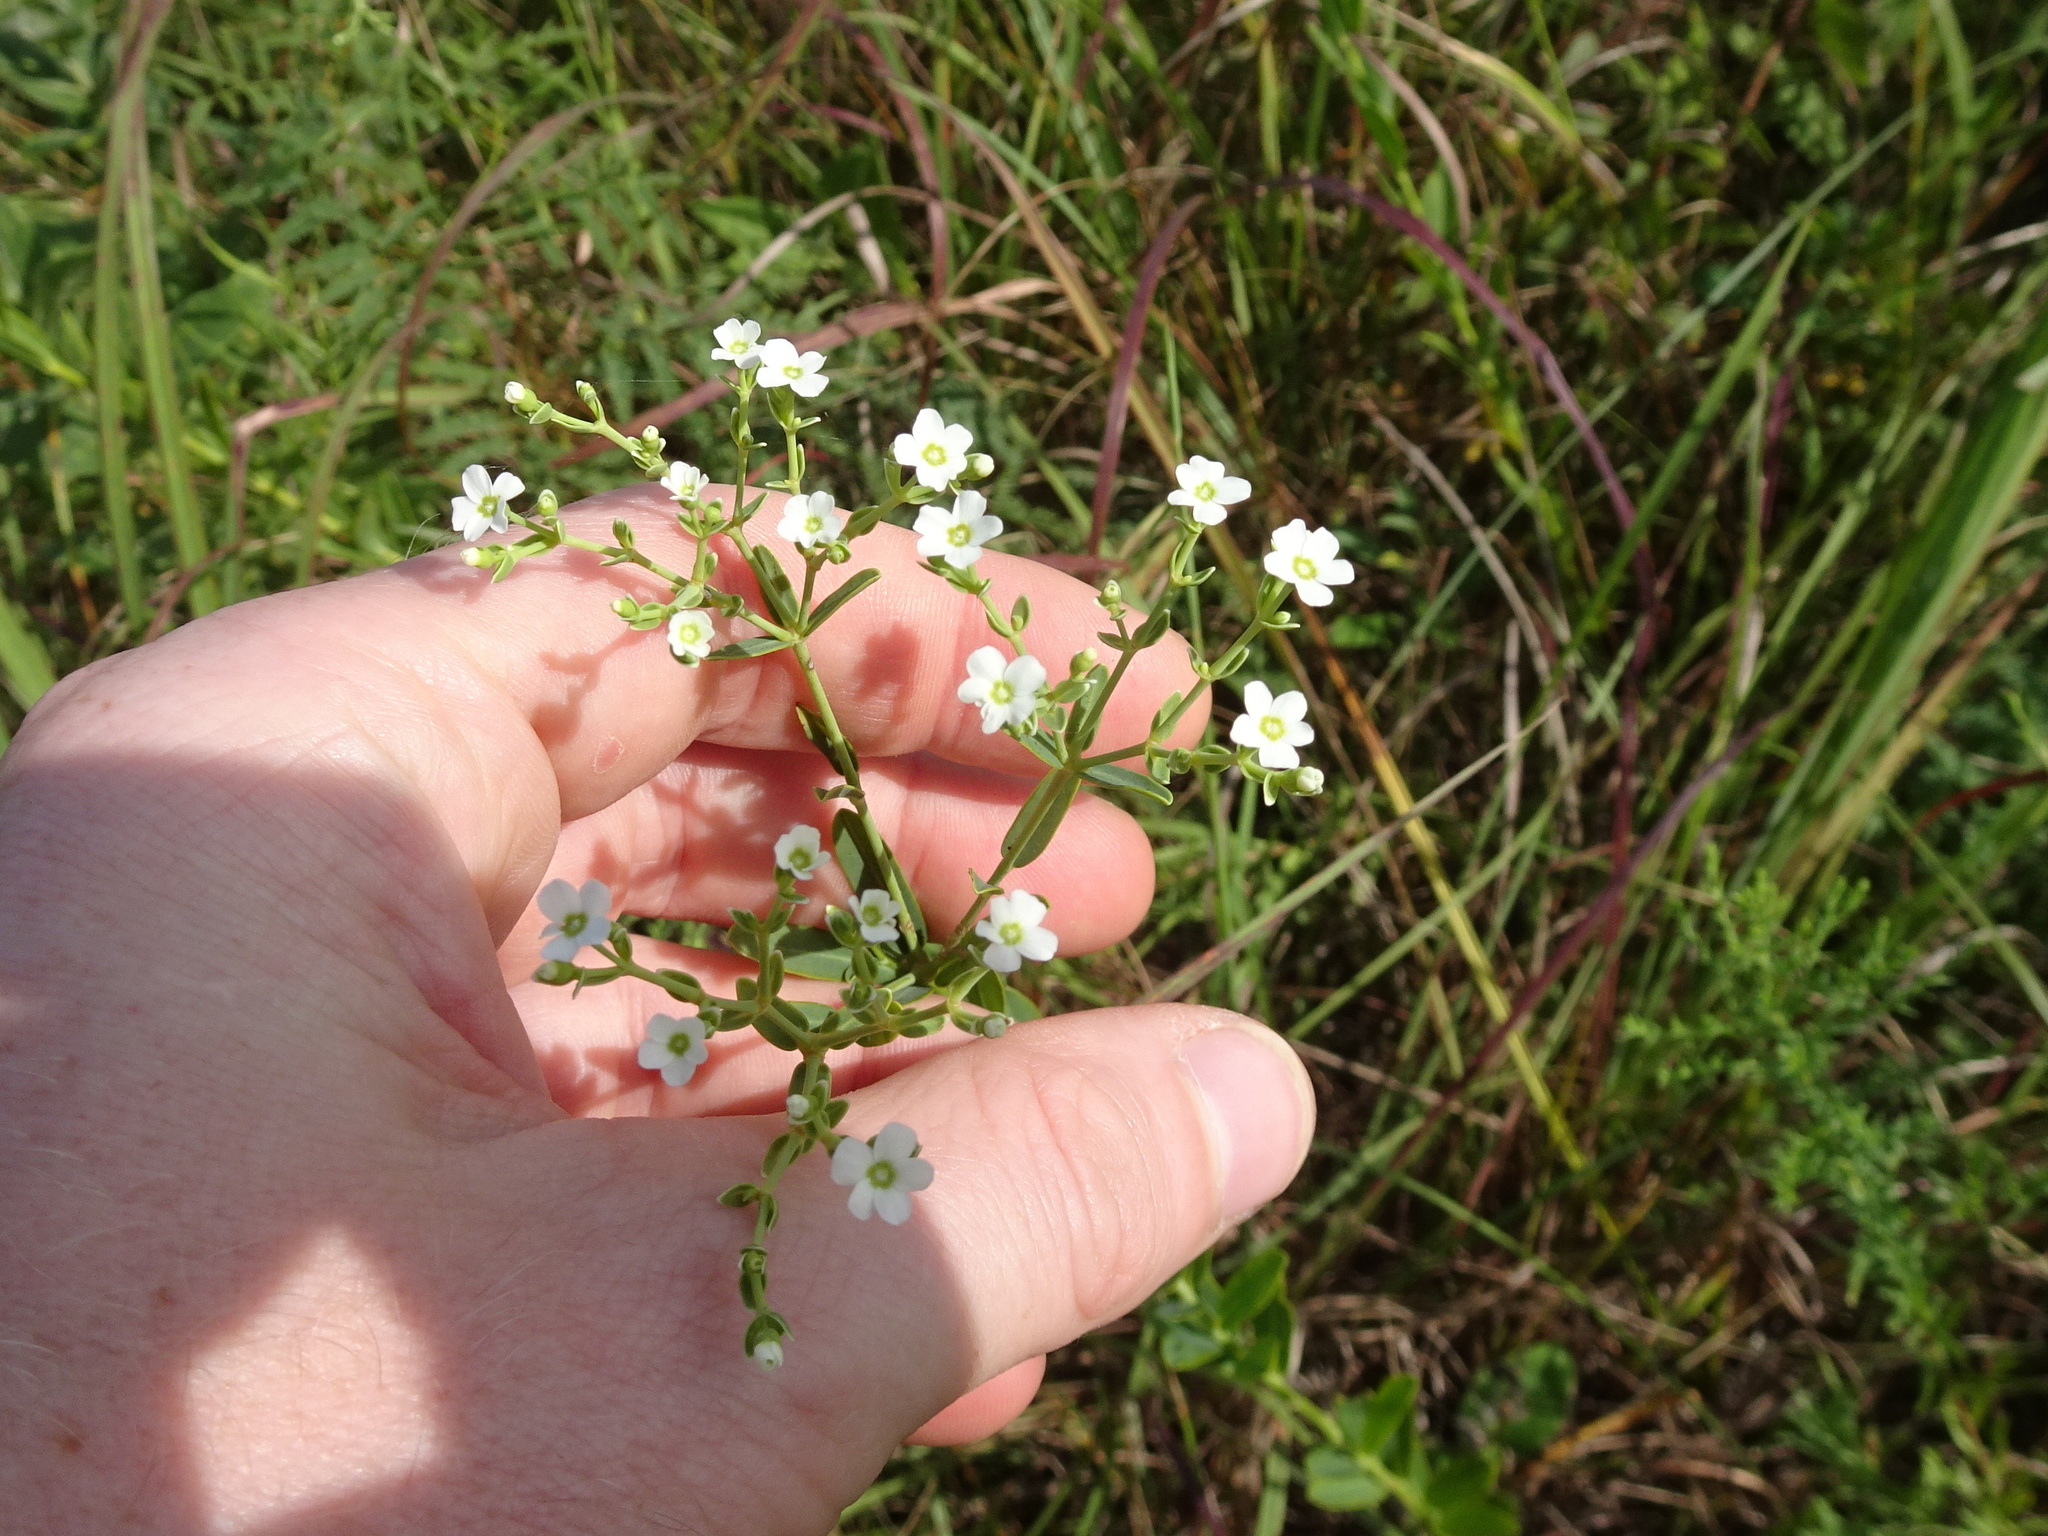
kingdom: Plantae
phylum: Tracheophyta
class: Magnoliopsida
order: Malpighiales
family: Euphorbiaceae
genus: Euphorbia
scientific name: Euphorbia corollata
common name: Flowering spurge
